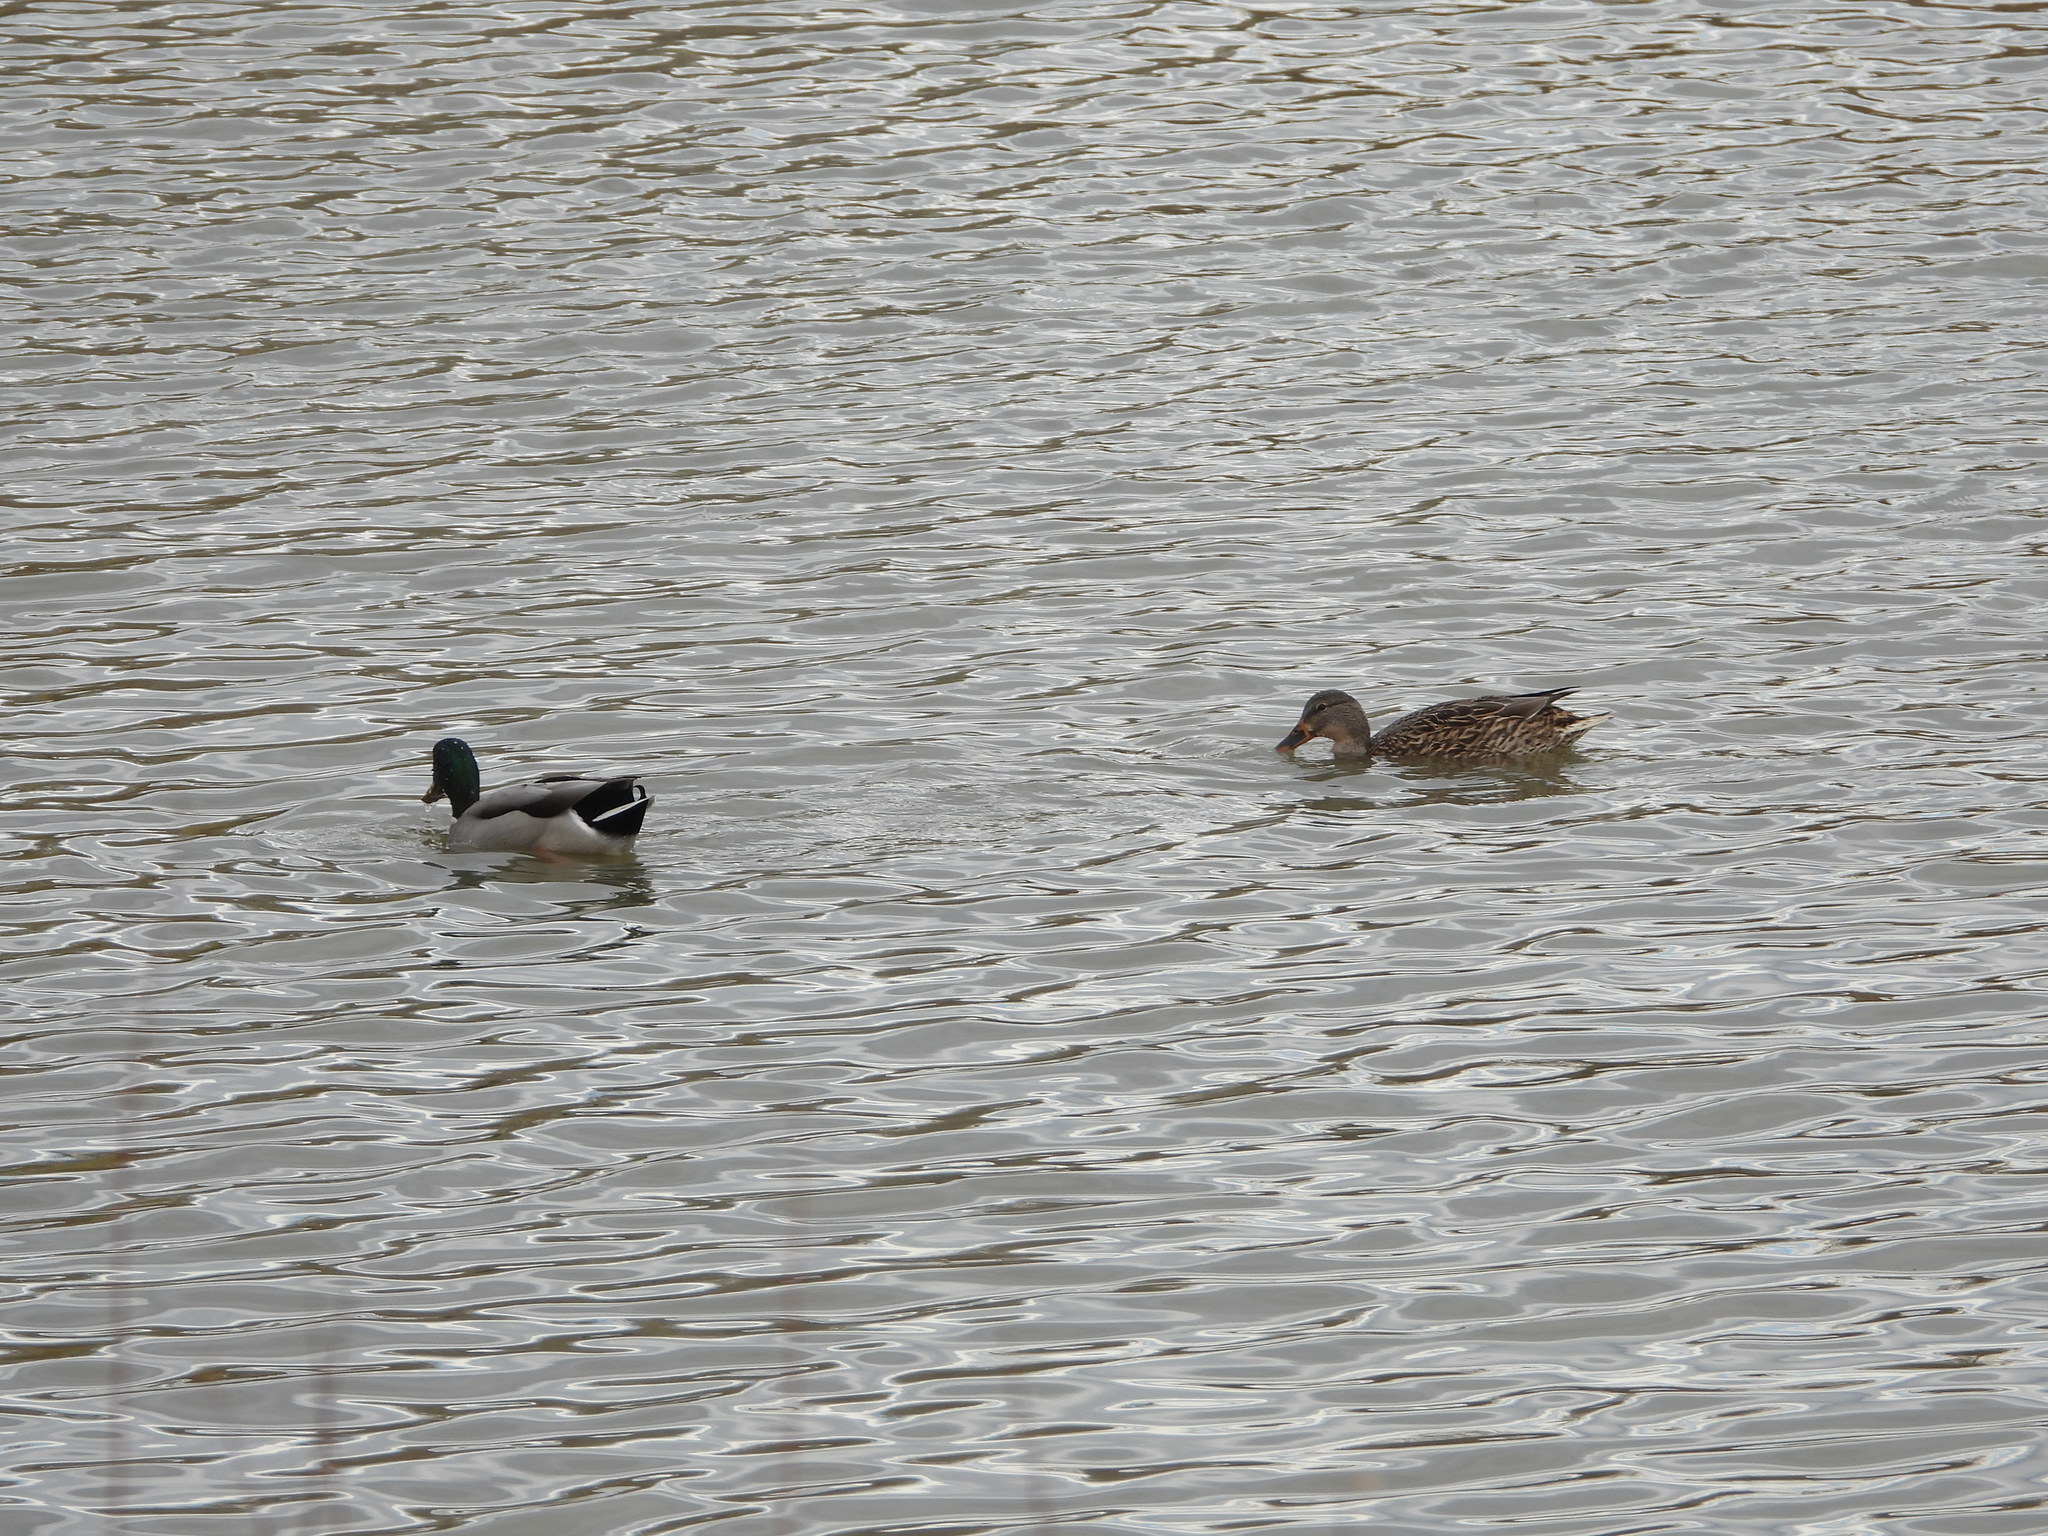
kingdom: Animalia
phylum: Chordata
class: Aves
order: Anseriformes
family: Anatidae
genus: Anas
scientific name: Anas platyrhynchos
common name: Mallard
